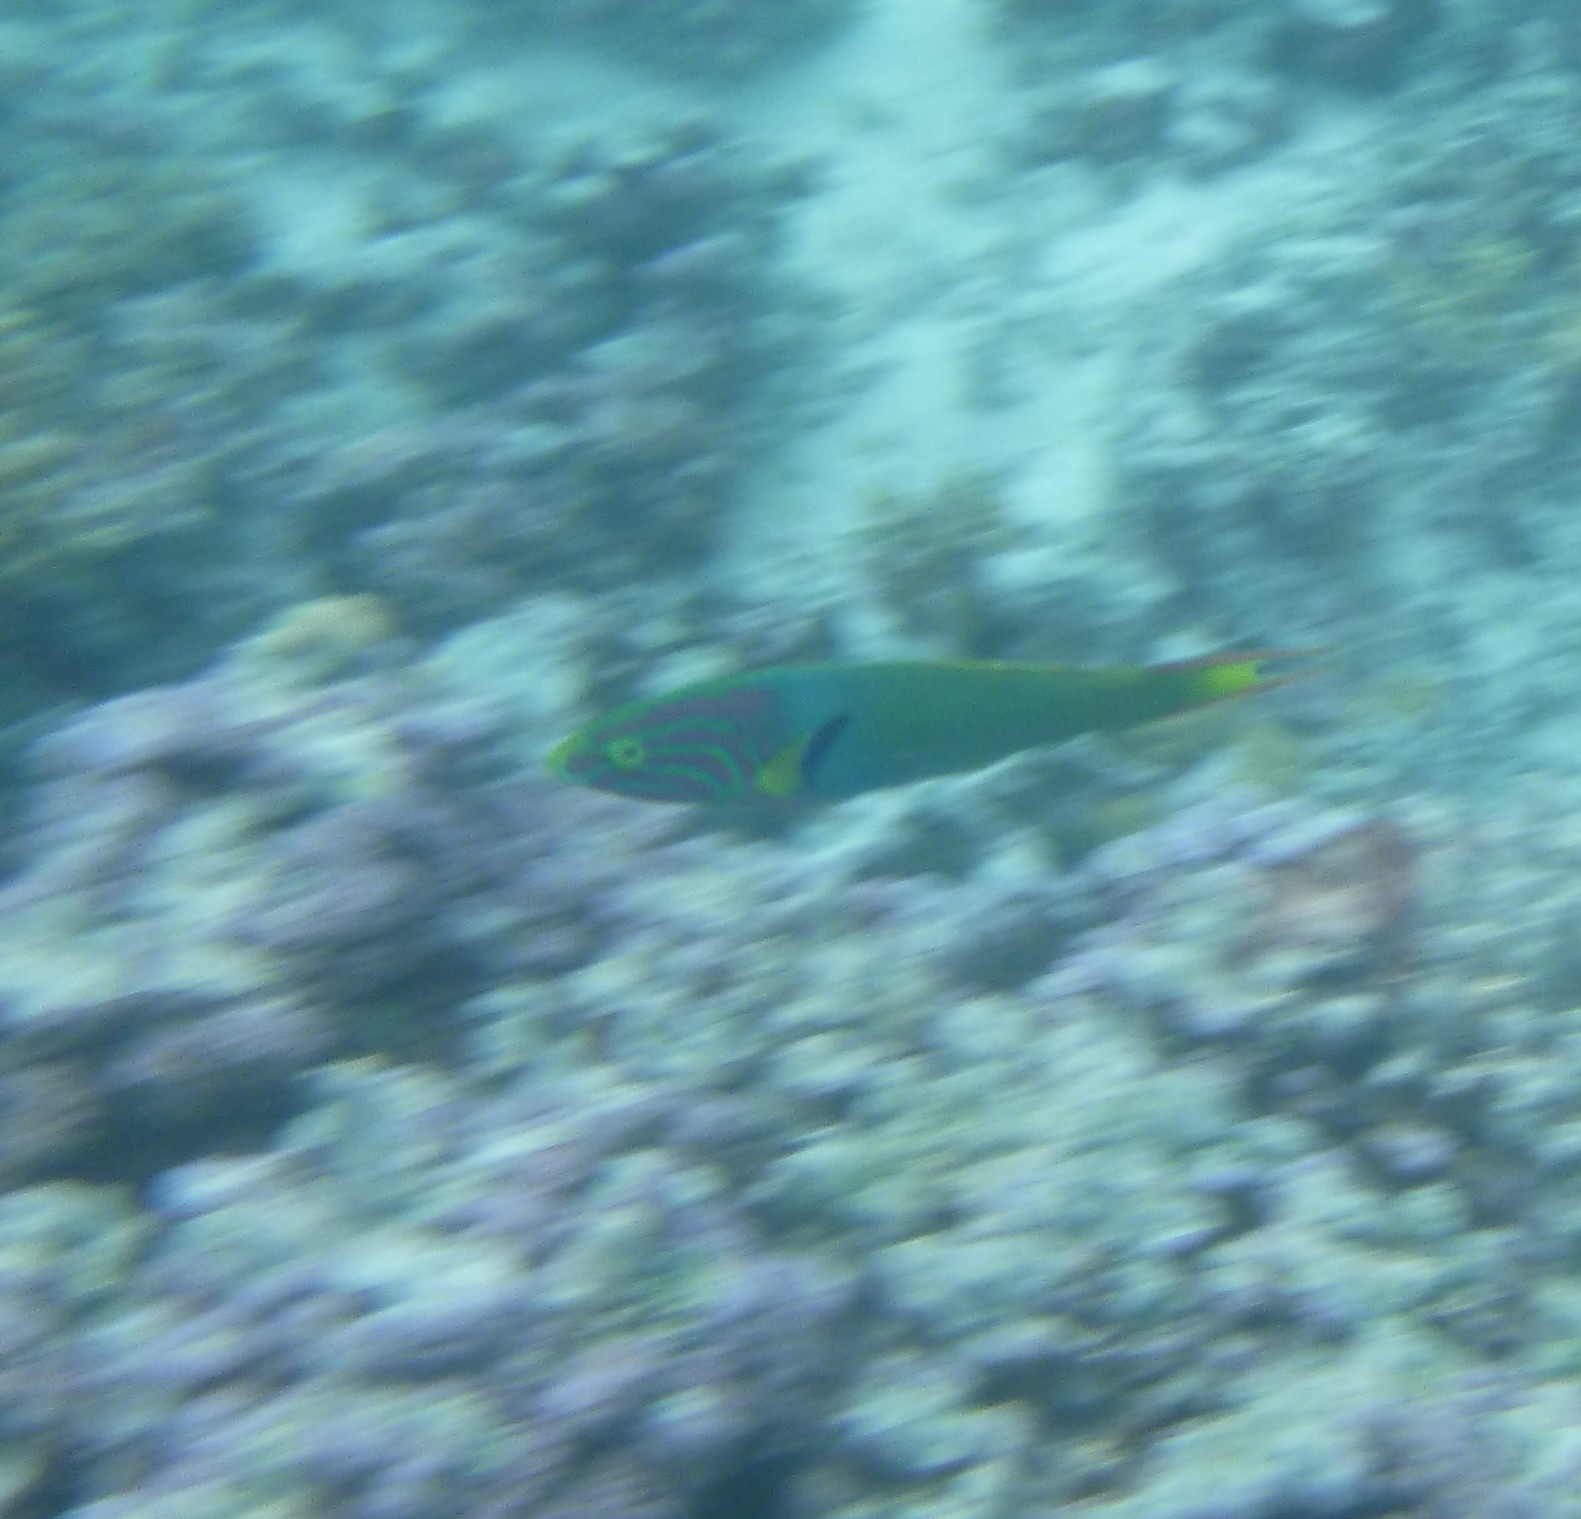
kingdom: Animalia
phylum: Chordata
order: Perciformes
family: Labridae
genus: Thalassoma
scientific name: Thalassoma lutescens
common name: Green moon wrasse
